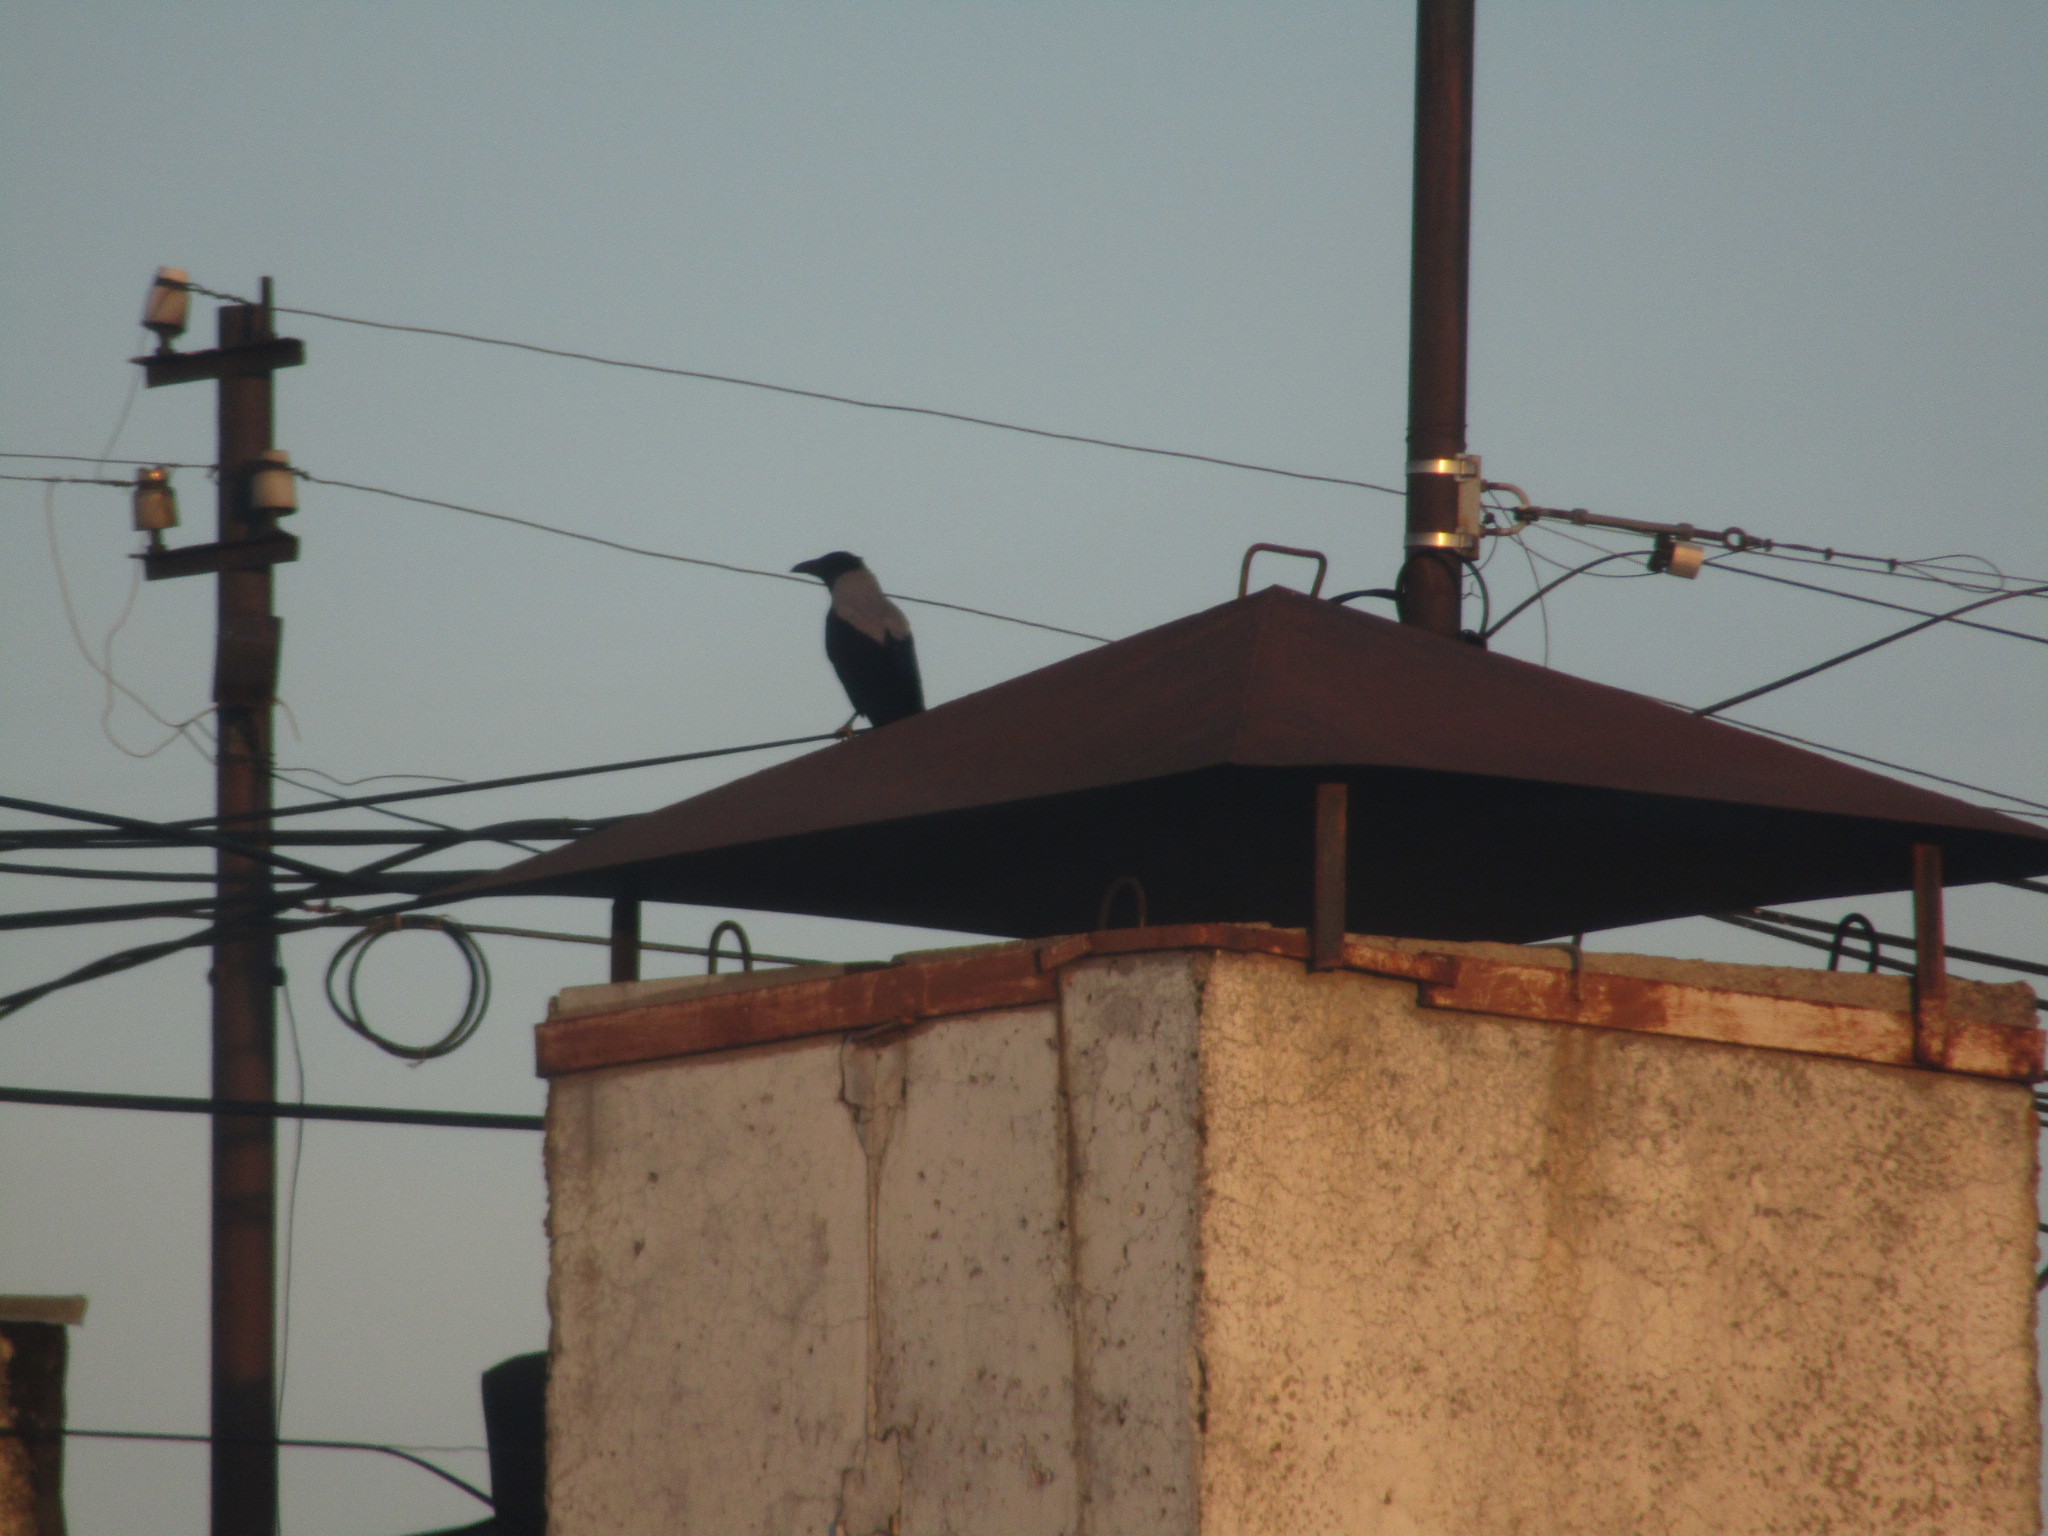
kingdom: Animalia
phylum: Chordata
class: Aves
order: Passeriformes
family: Corvidae
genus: Corvus
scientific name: Corvus cornix
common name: Hooded crow
